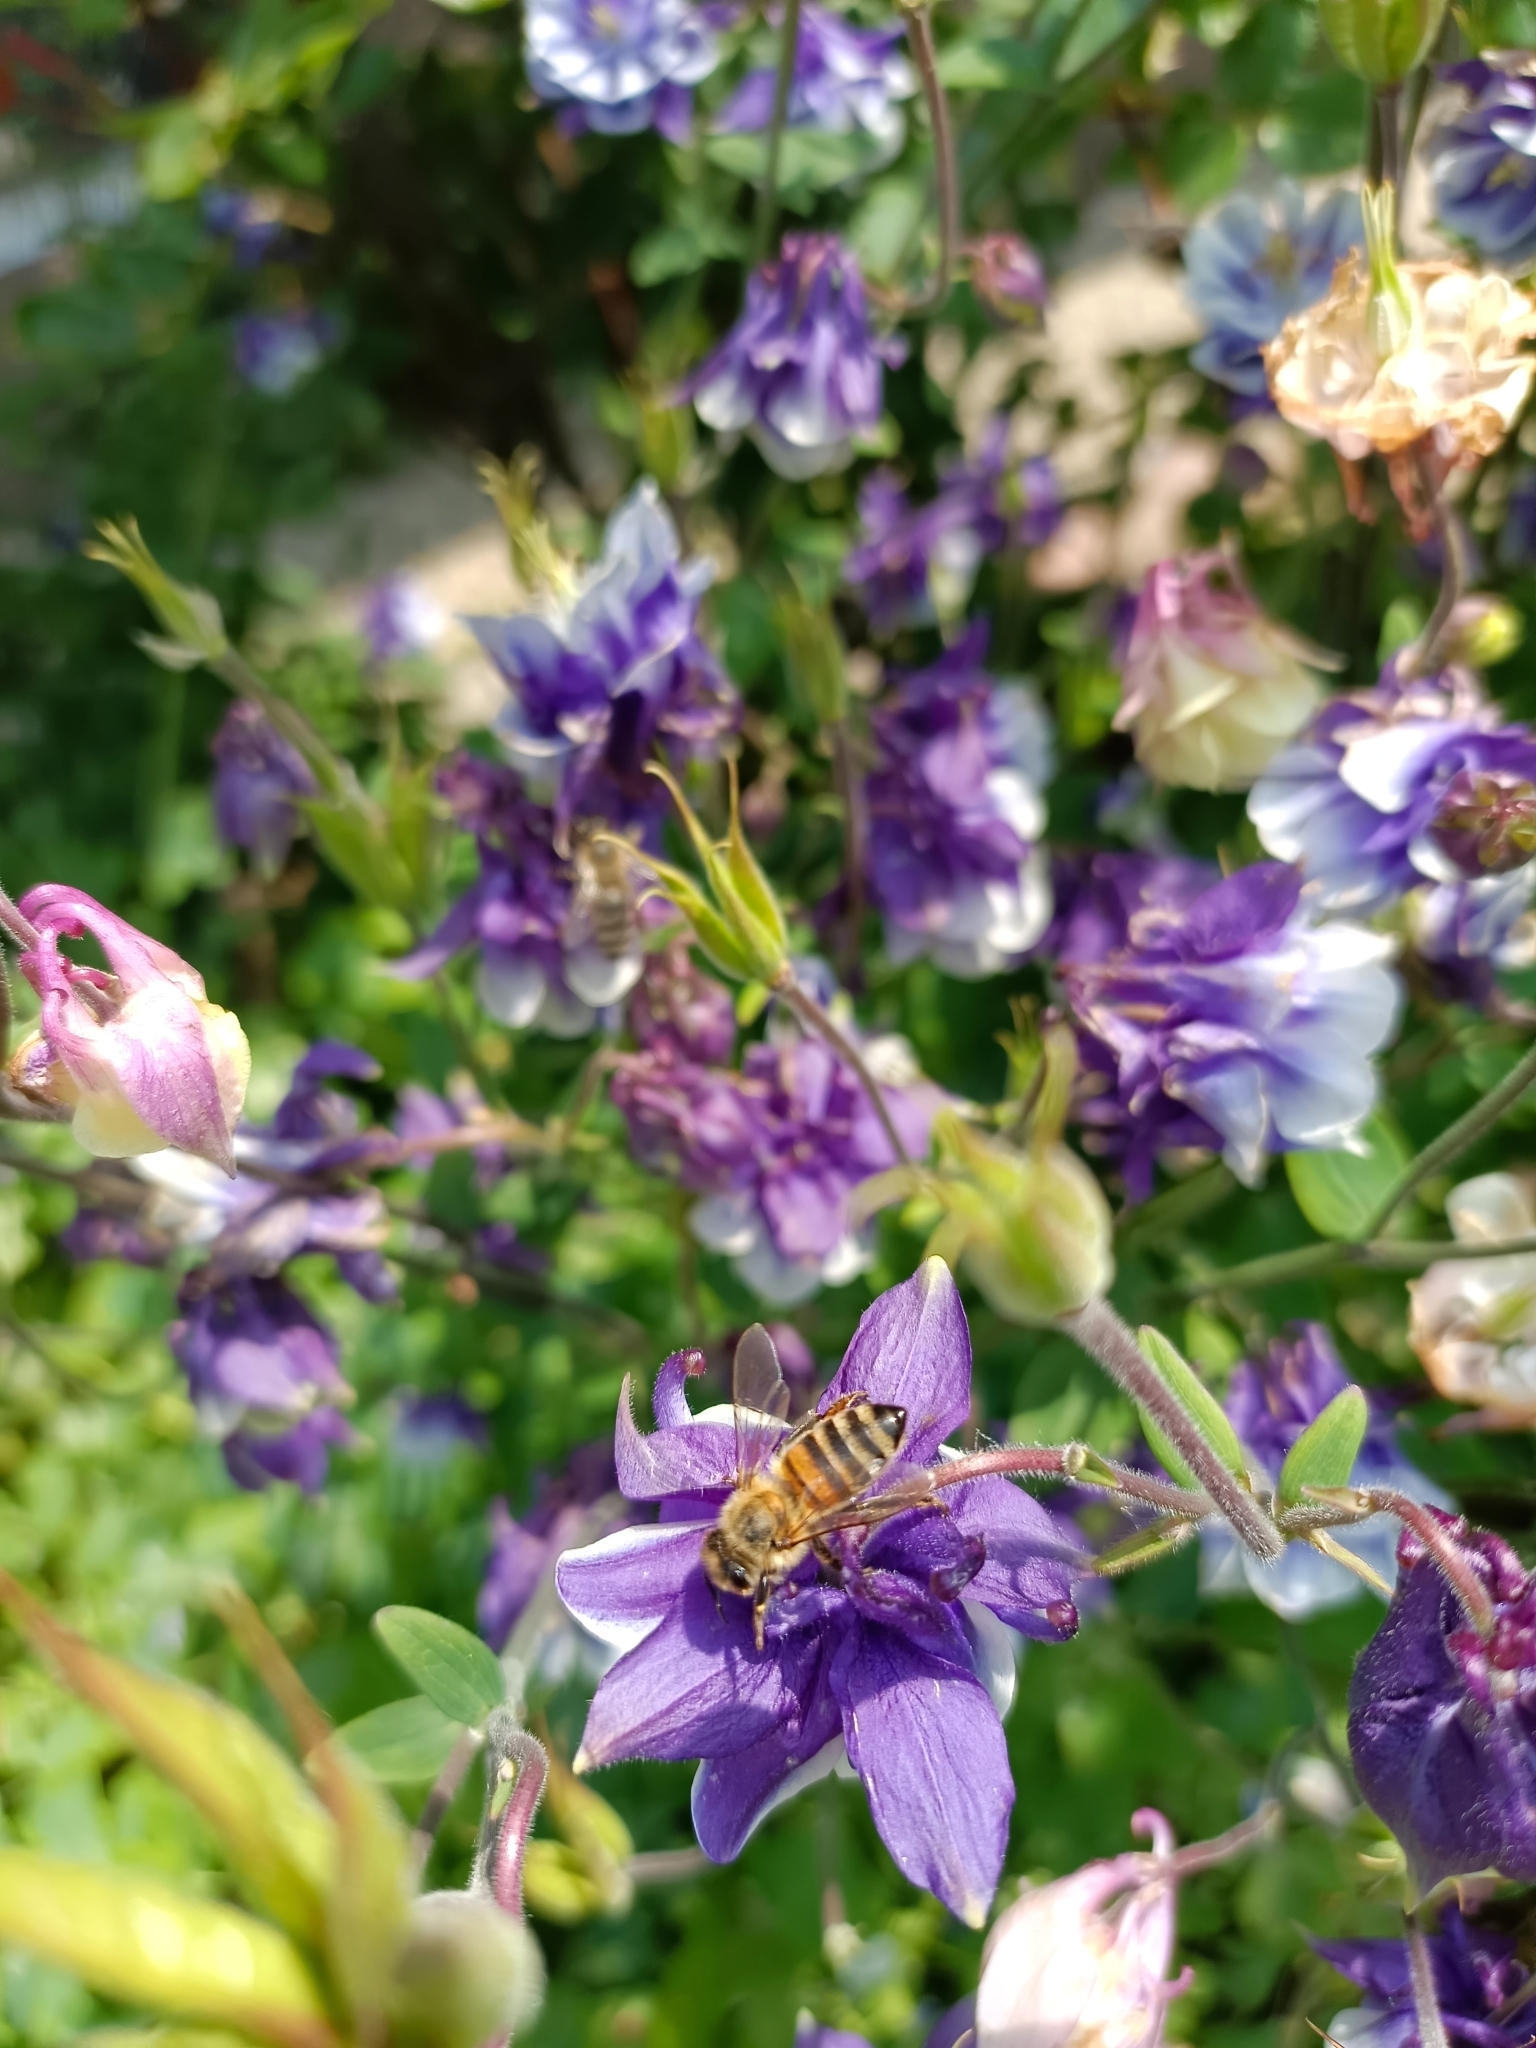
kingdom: Animalia
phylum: Arthropoda
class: Insecta
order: Hymenoptera
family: Apidae
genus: Apis
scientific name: Apis mellifera
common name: Honey bee
